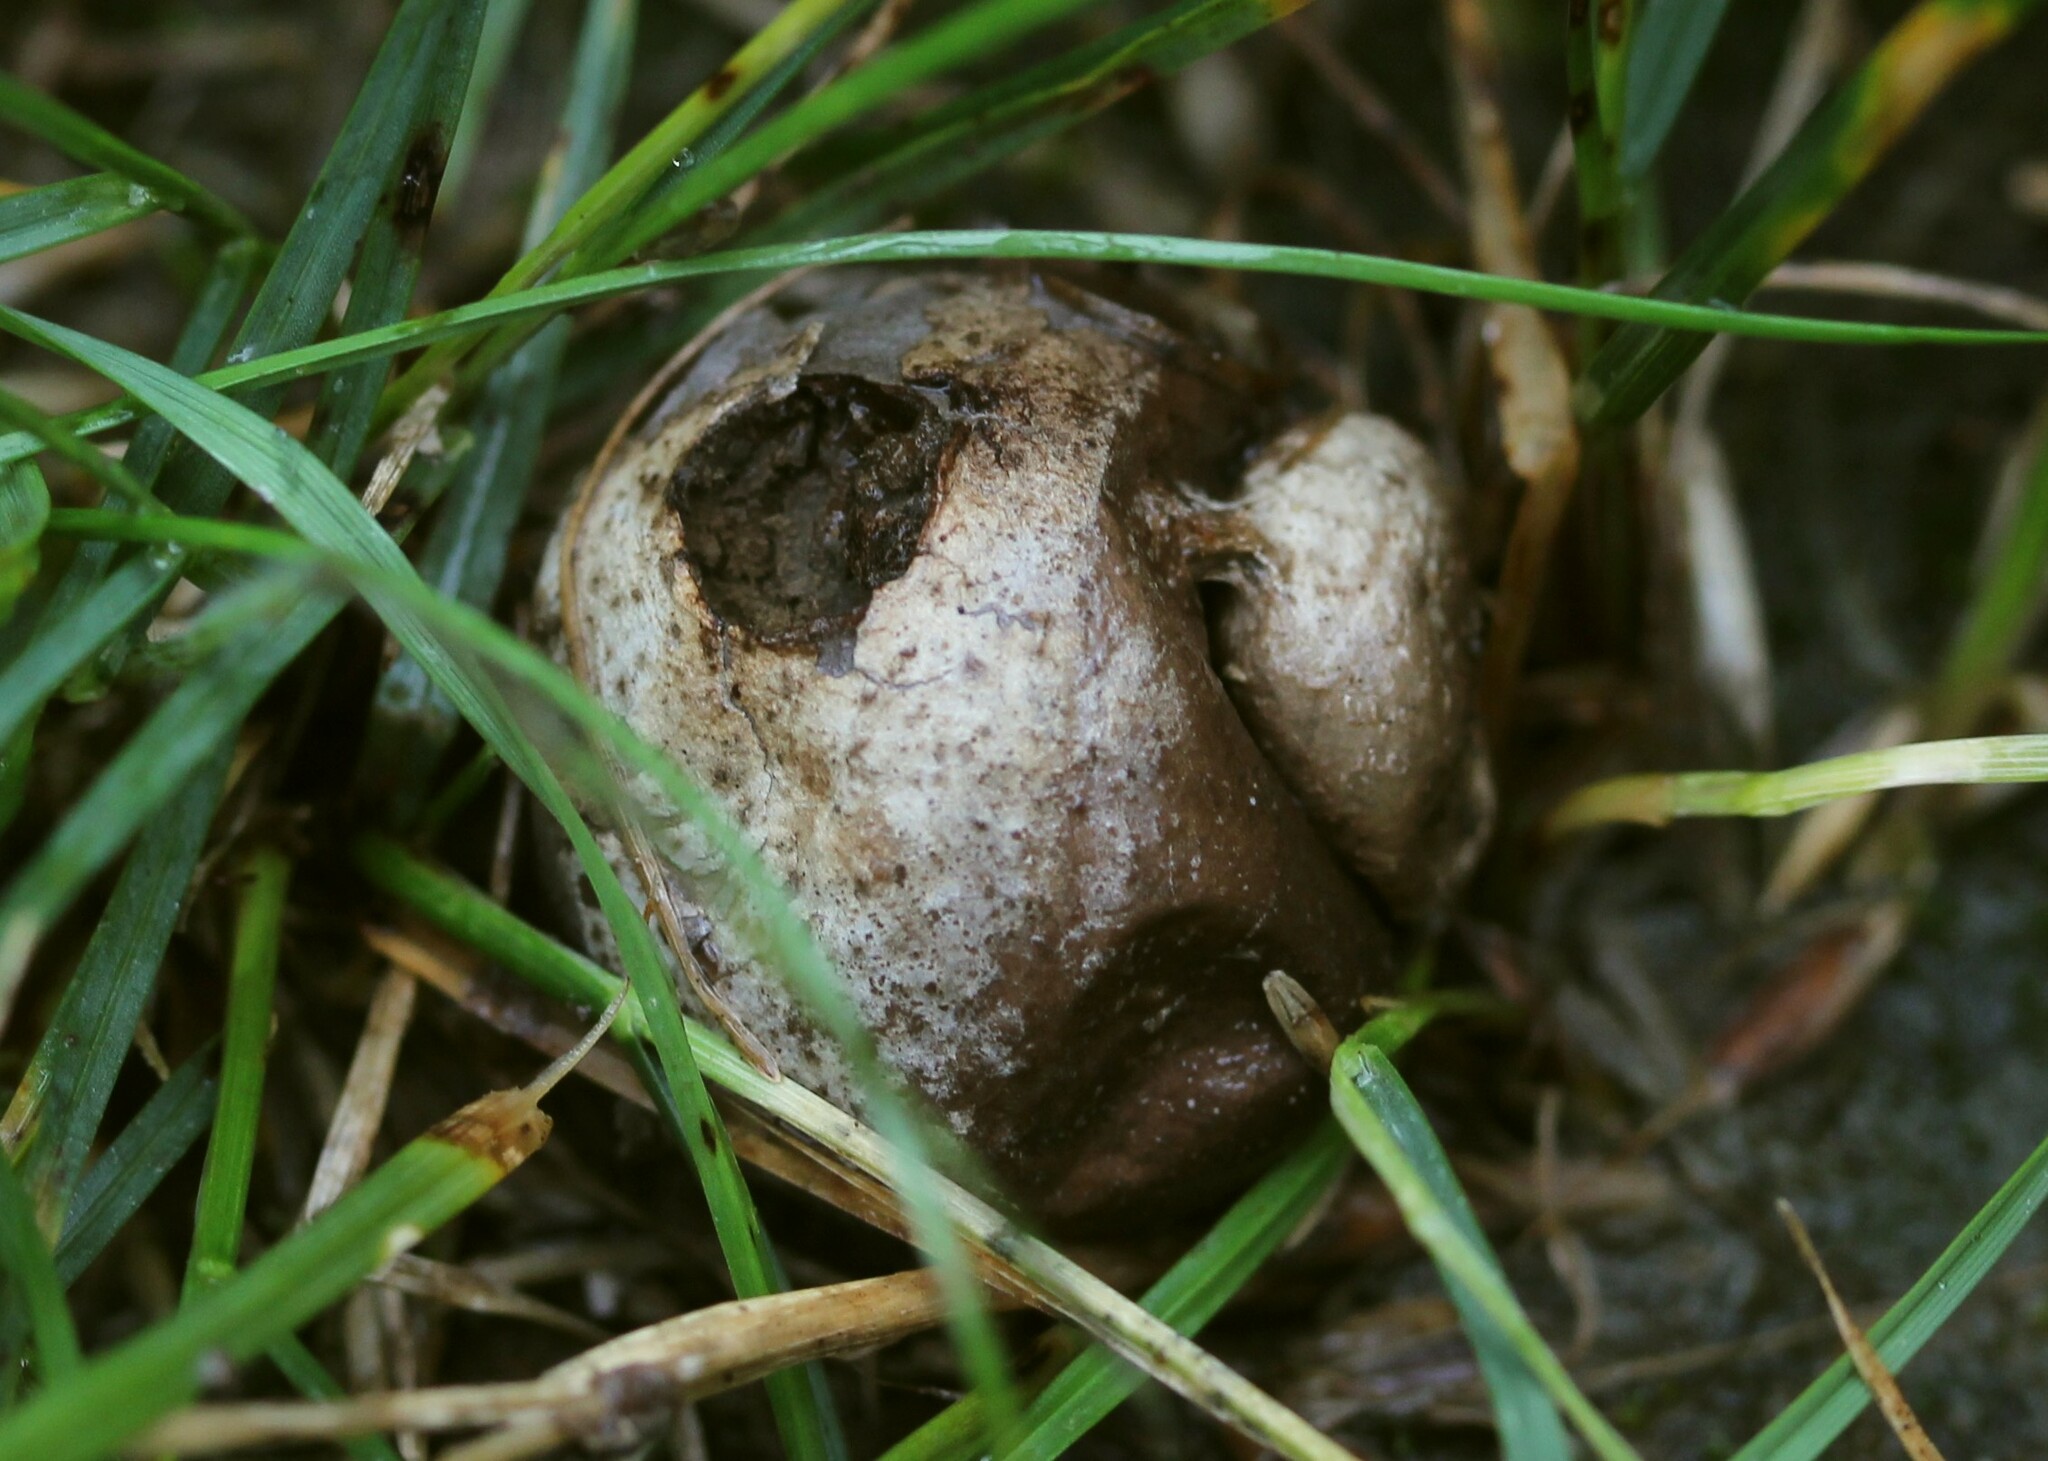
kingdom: Fungi
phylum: Basidiomycota
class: Agaricomycetes
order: Agaricales
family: Lycoperdaceae
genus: Lycoperdon
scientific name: Lycoperdon
